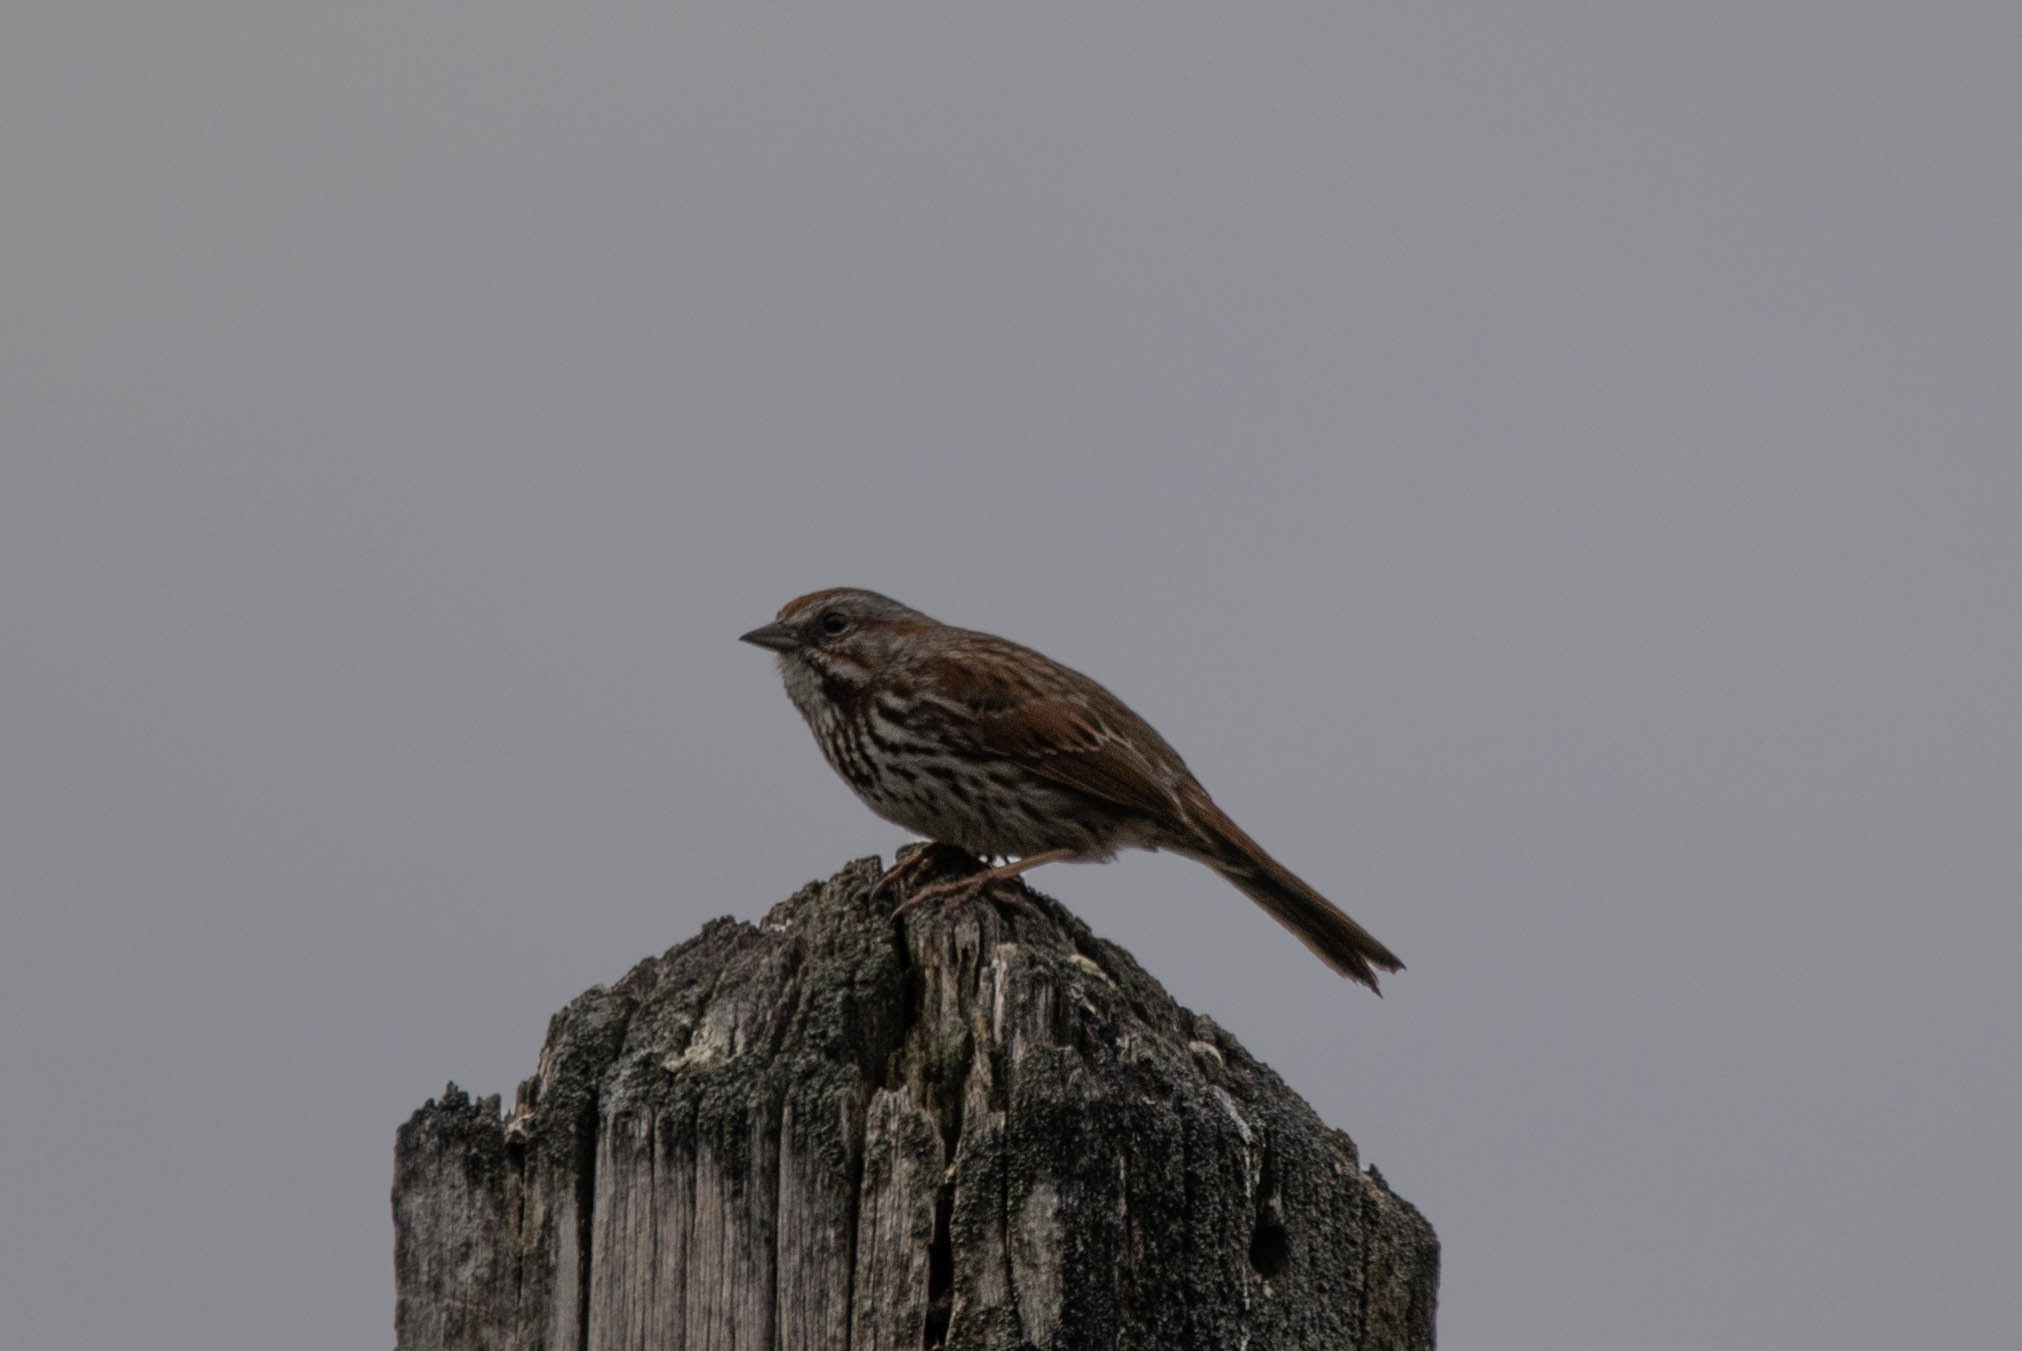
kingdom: Animalia
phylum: Chordata
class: Aves
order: Passeriformes
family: Passerellidae
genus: Melospiza
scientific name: Melospiza melodia
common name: Song sparrow
